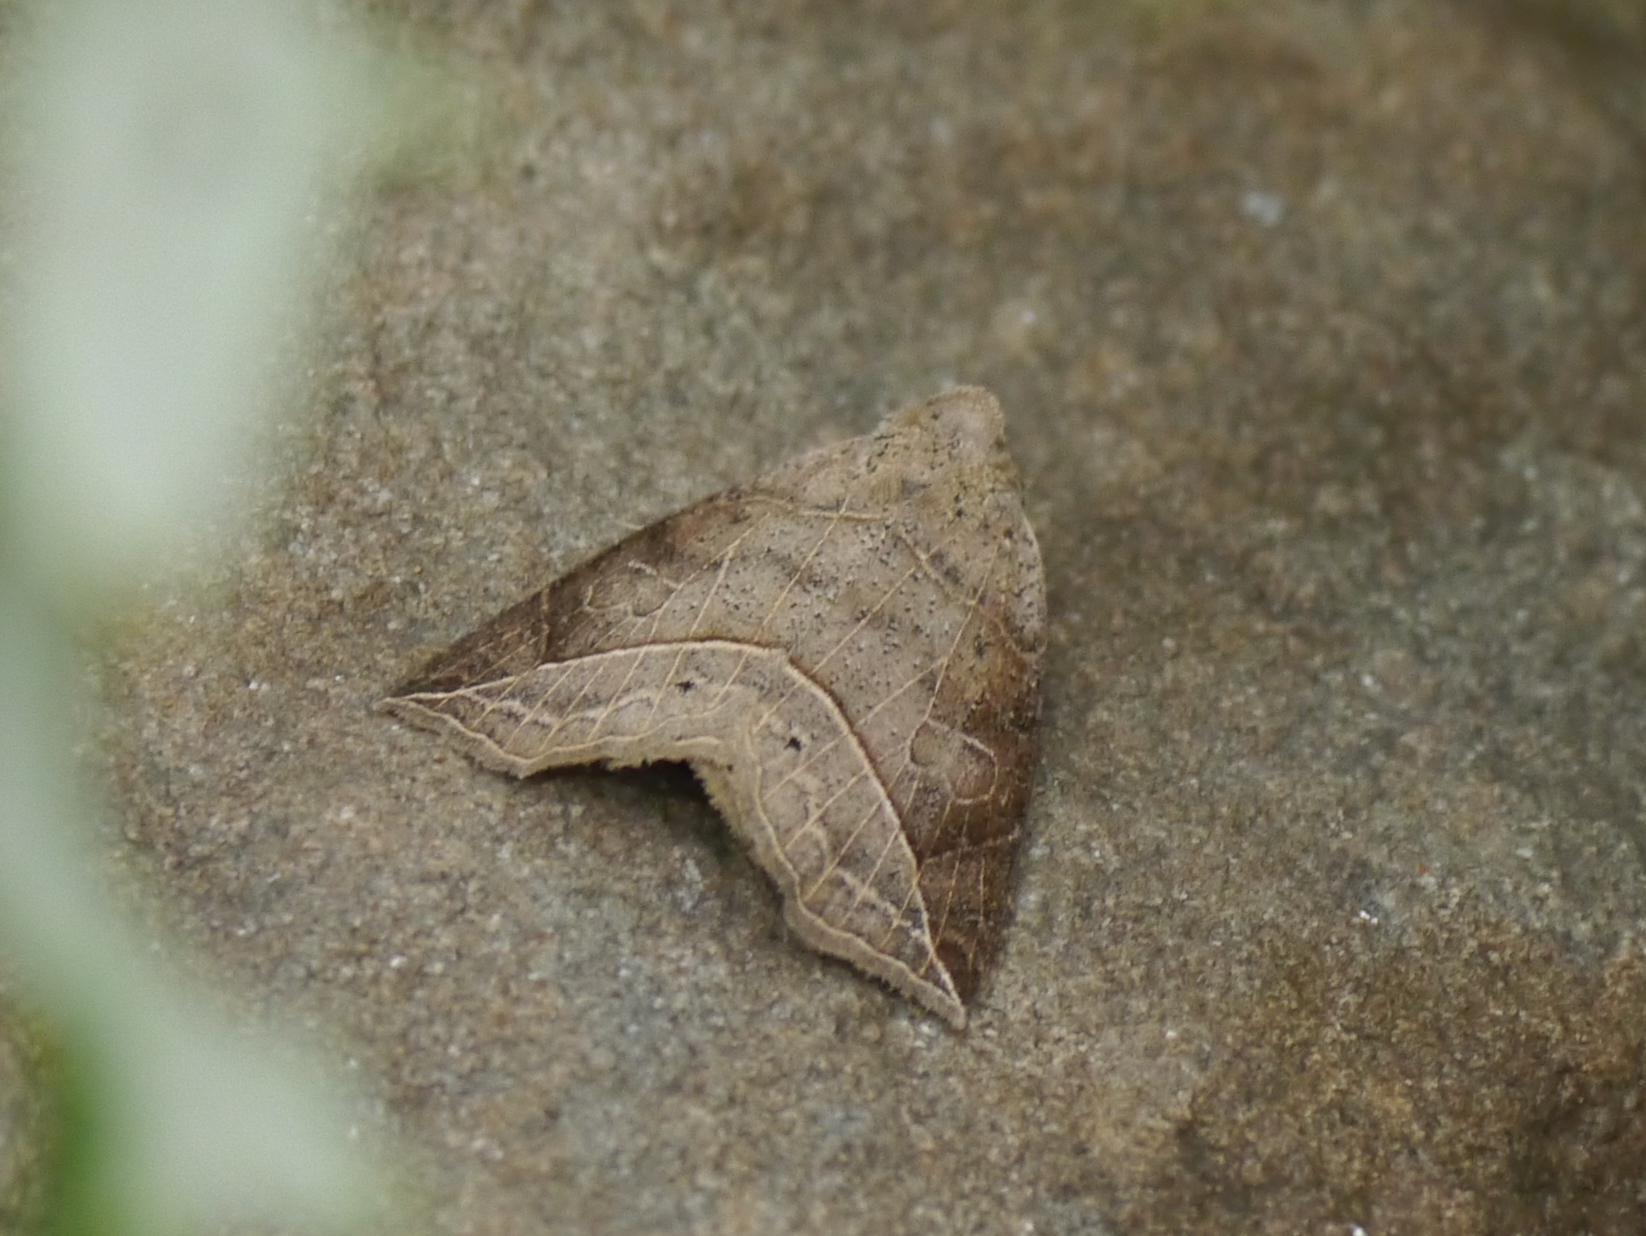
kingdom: Animalia
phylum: Arthropoda
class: Insecta
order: Lepidoptera
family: Erebidae
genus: Isogona
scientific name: Isogona tenuis
